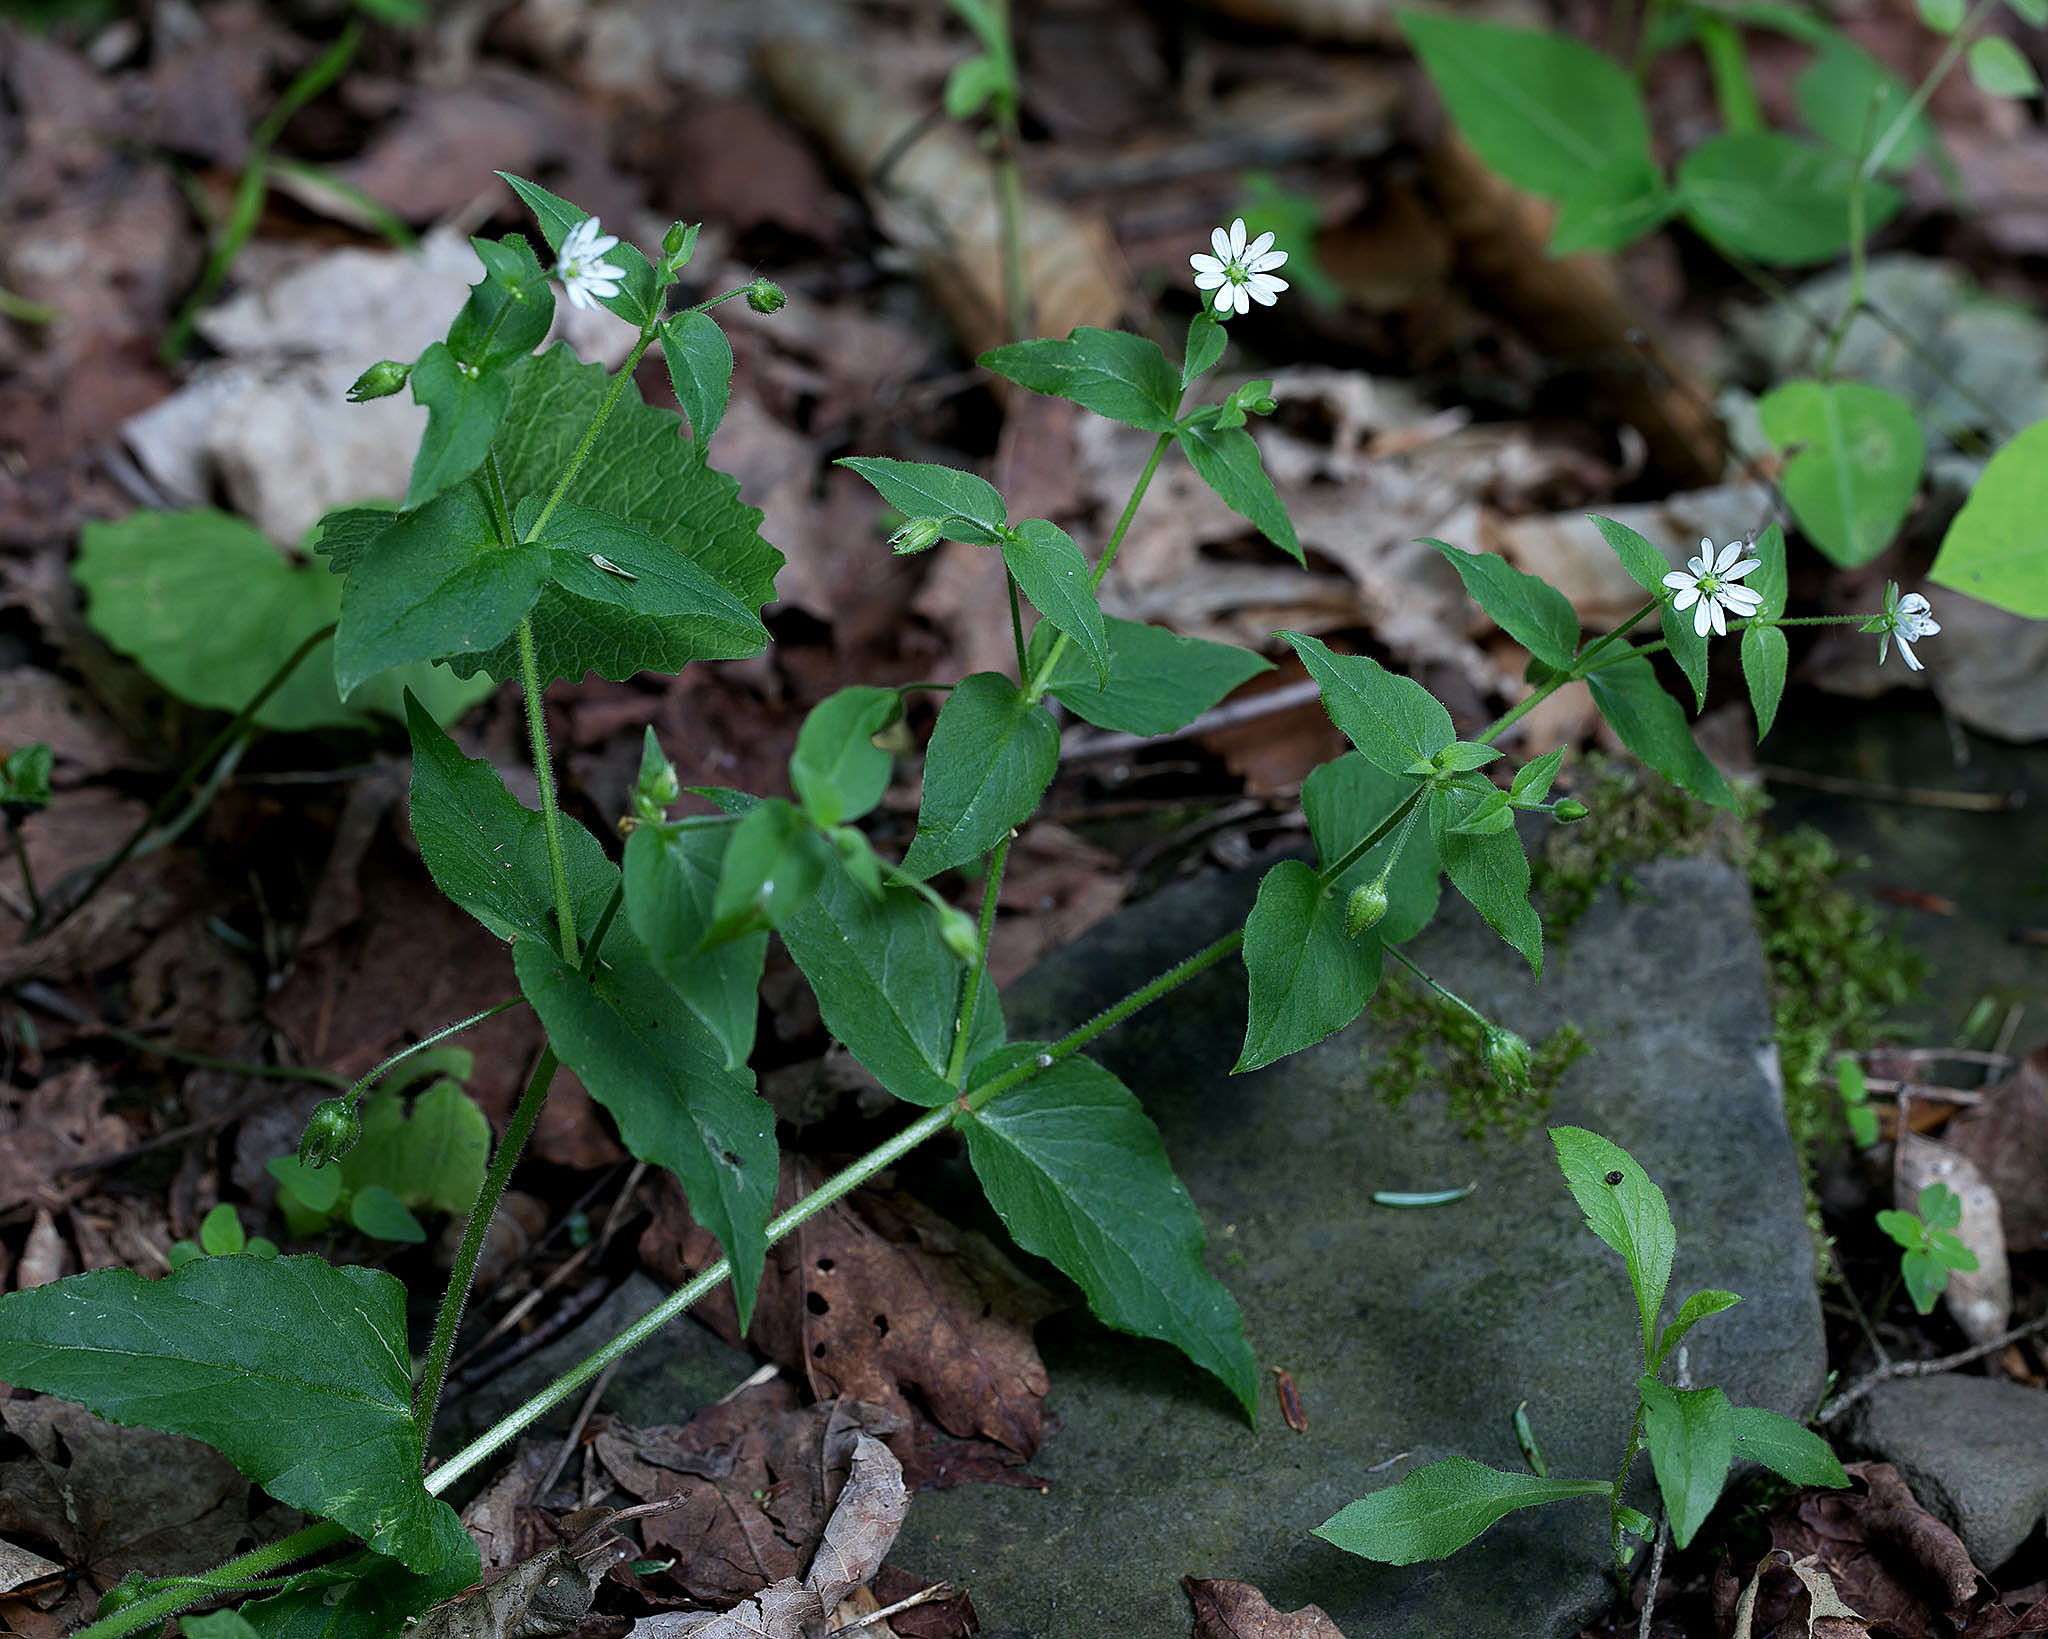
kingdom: Plantae
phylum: Tracheophyta
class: Magnoliopsida
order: Caryophyllales
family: Caryophyllaceae
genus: Stellaria
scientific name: Stellaria aquatica
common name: Water chickweed
